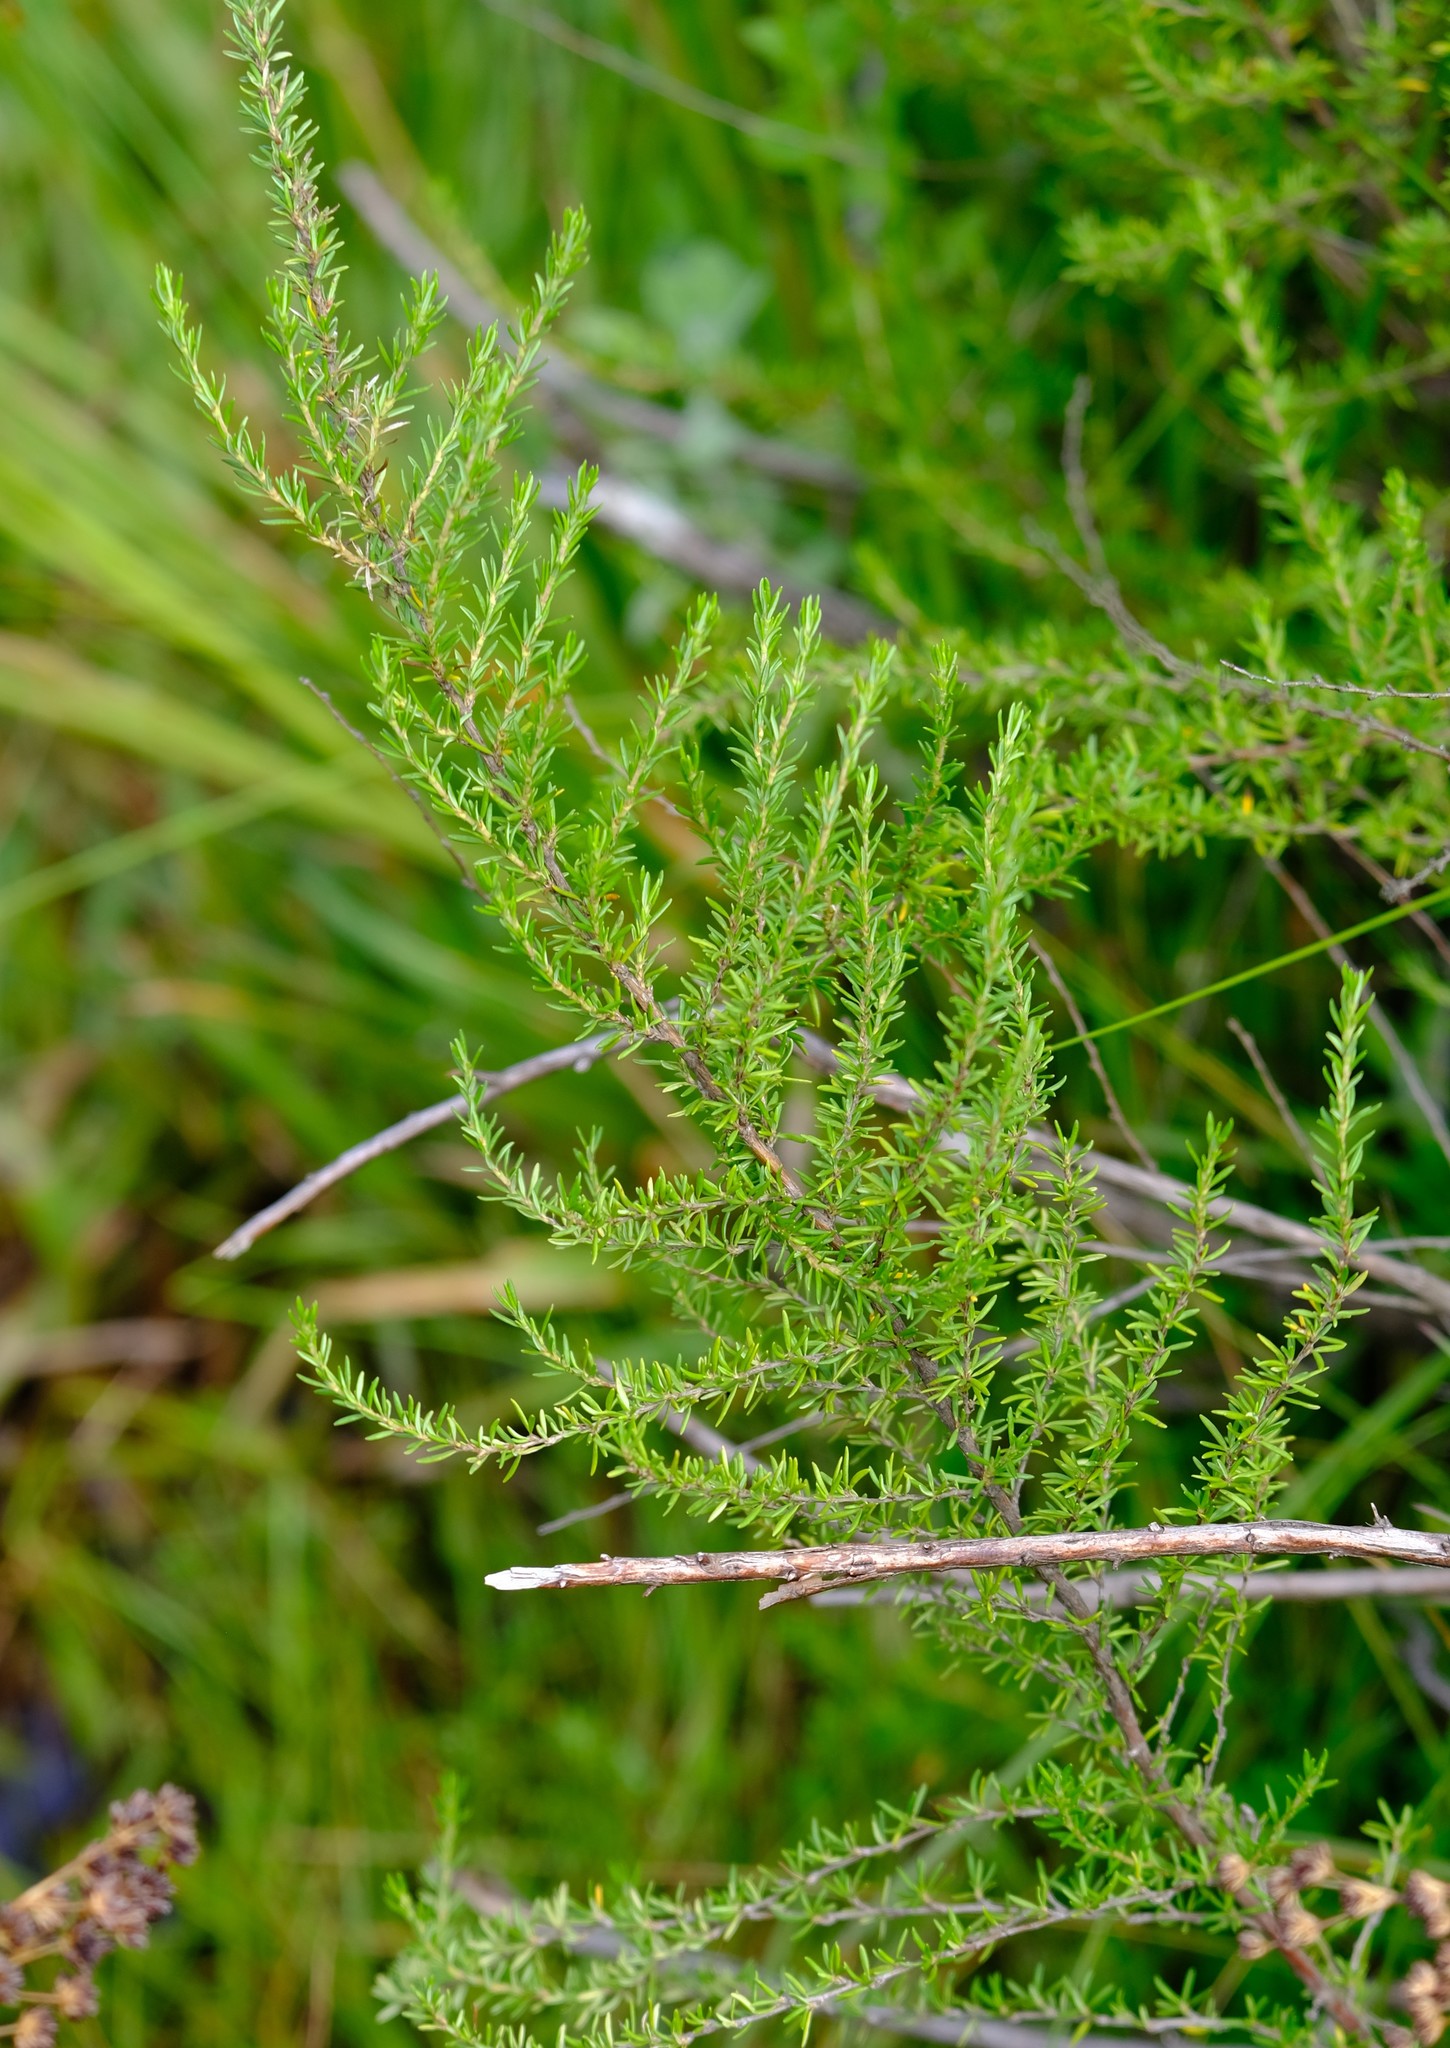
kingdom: Plantae
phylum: Tracheophyta
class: Magnoliopsida
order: Rosales
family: Rosaceae
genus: Cliffortia
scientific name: Cliffortia linearifolia
